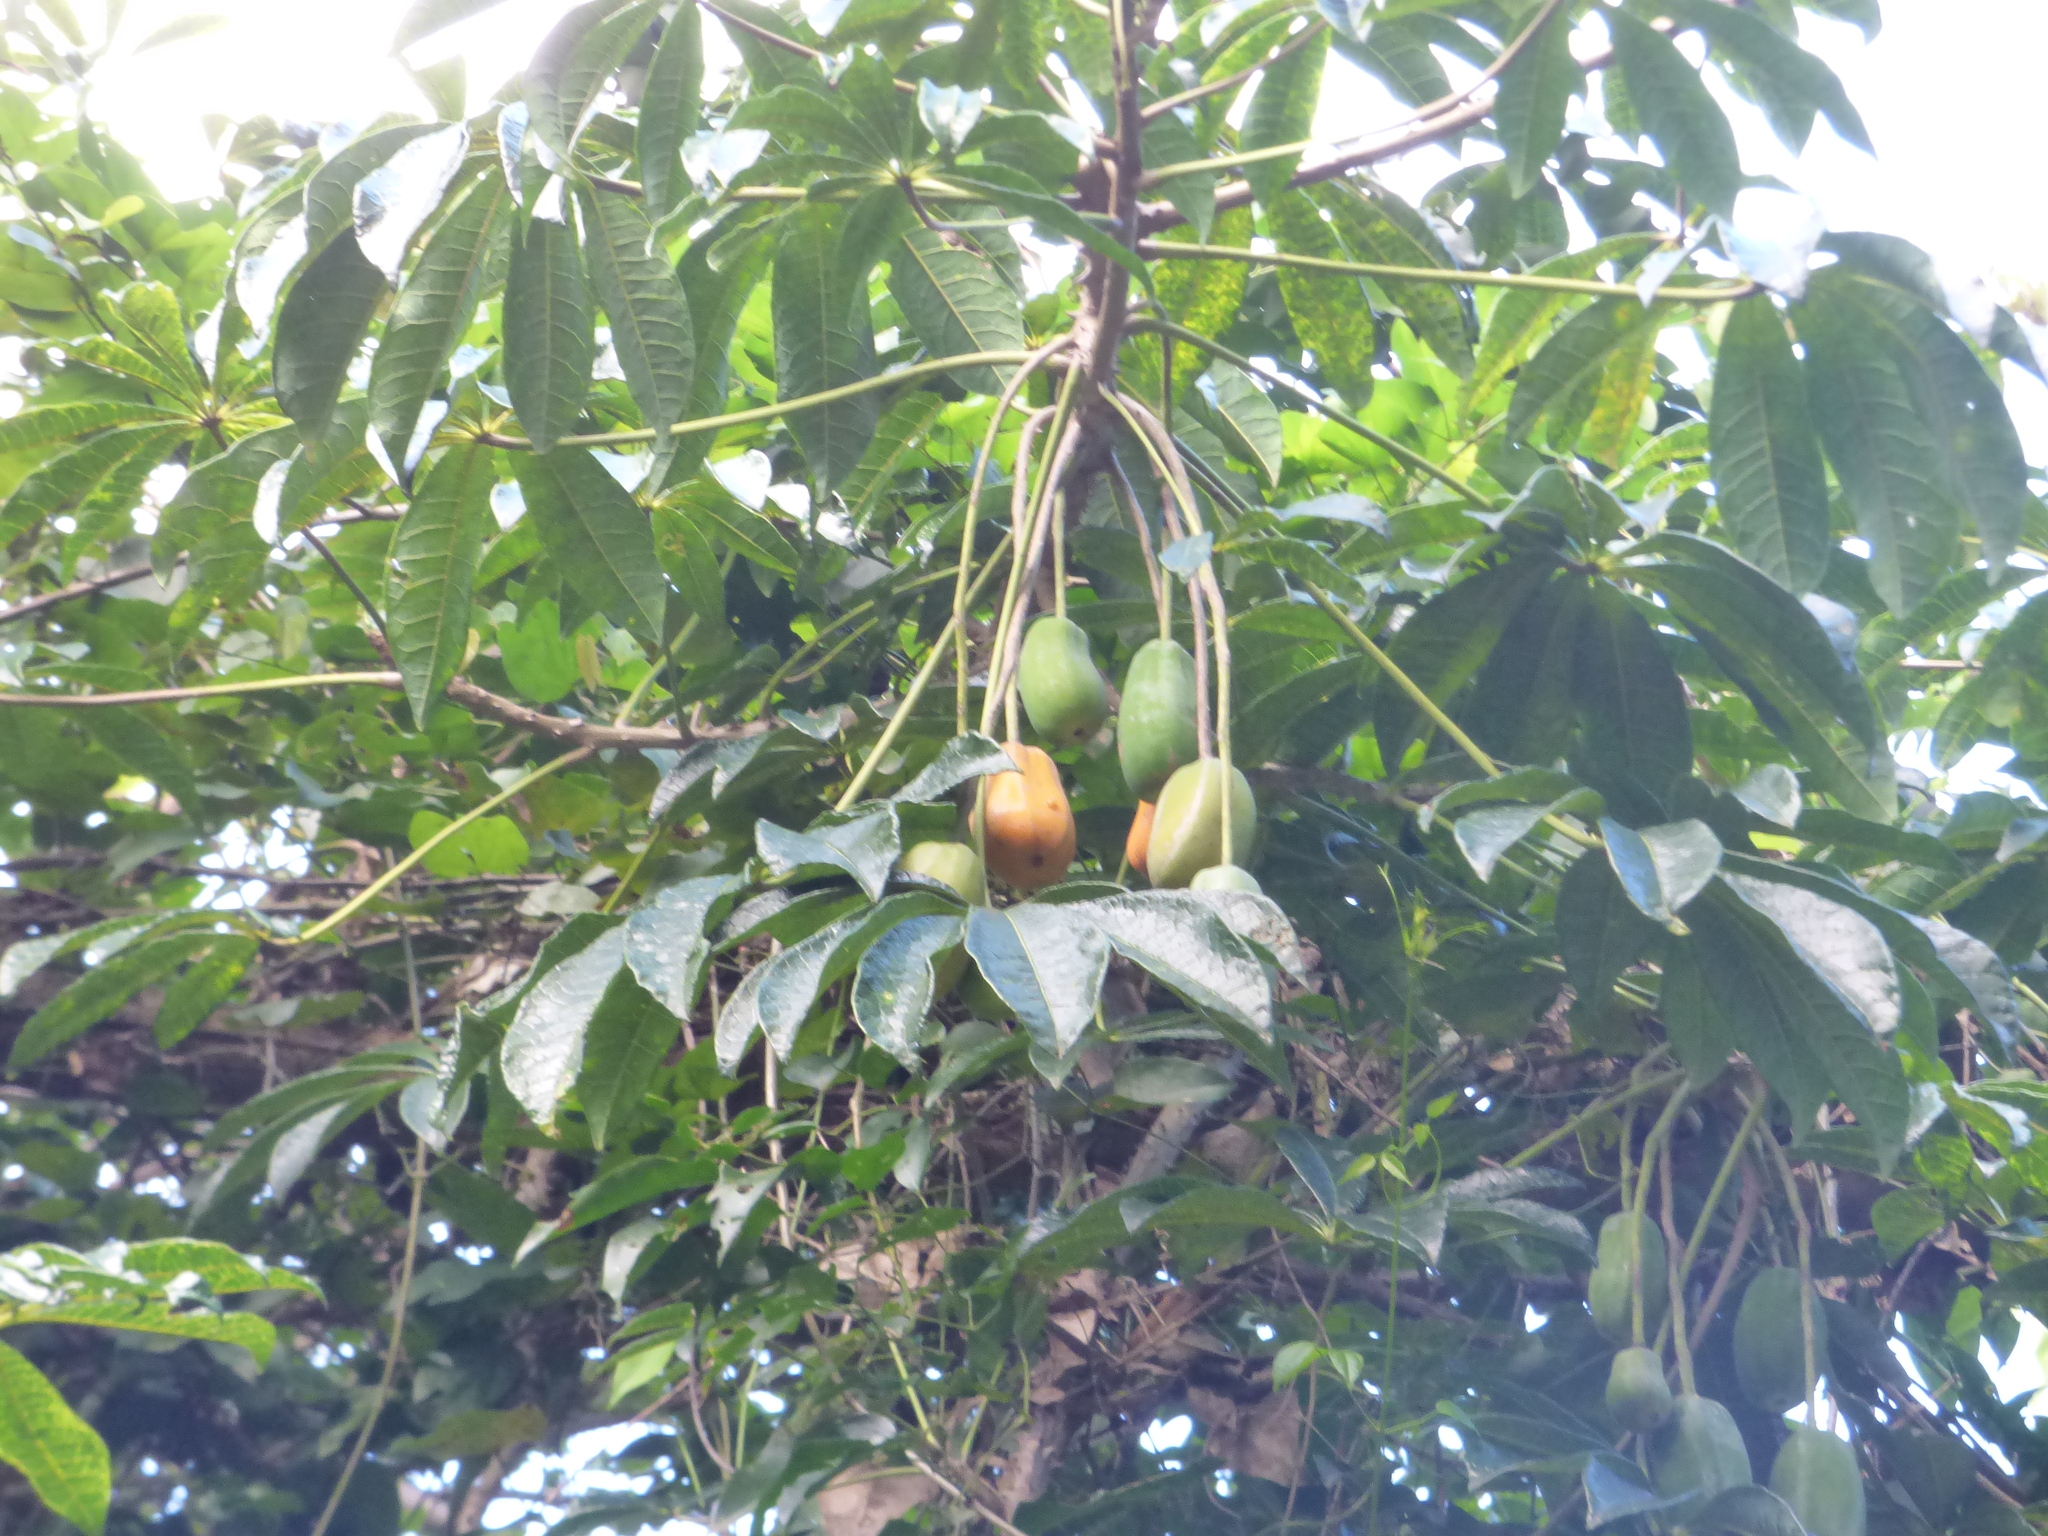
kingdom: Plantae
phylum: Tracheophyta
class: Magnoliopsida
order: Brassicales
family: Caricaceae
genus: Jacaratia
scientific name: Jacaratia spinosa
